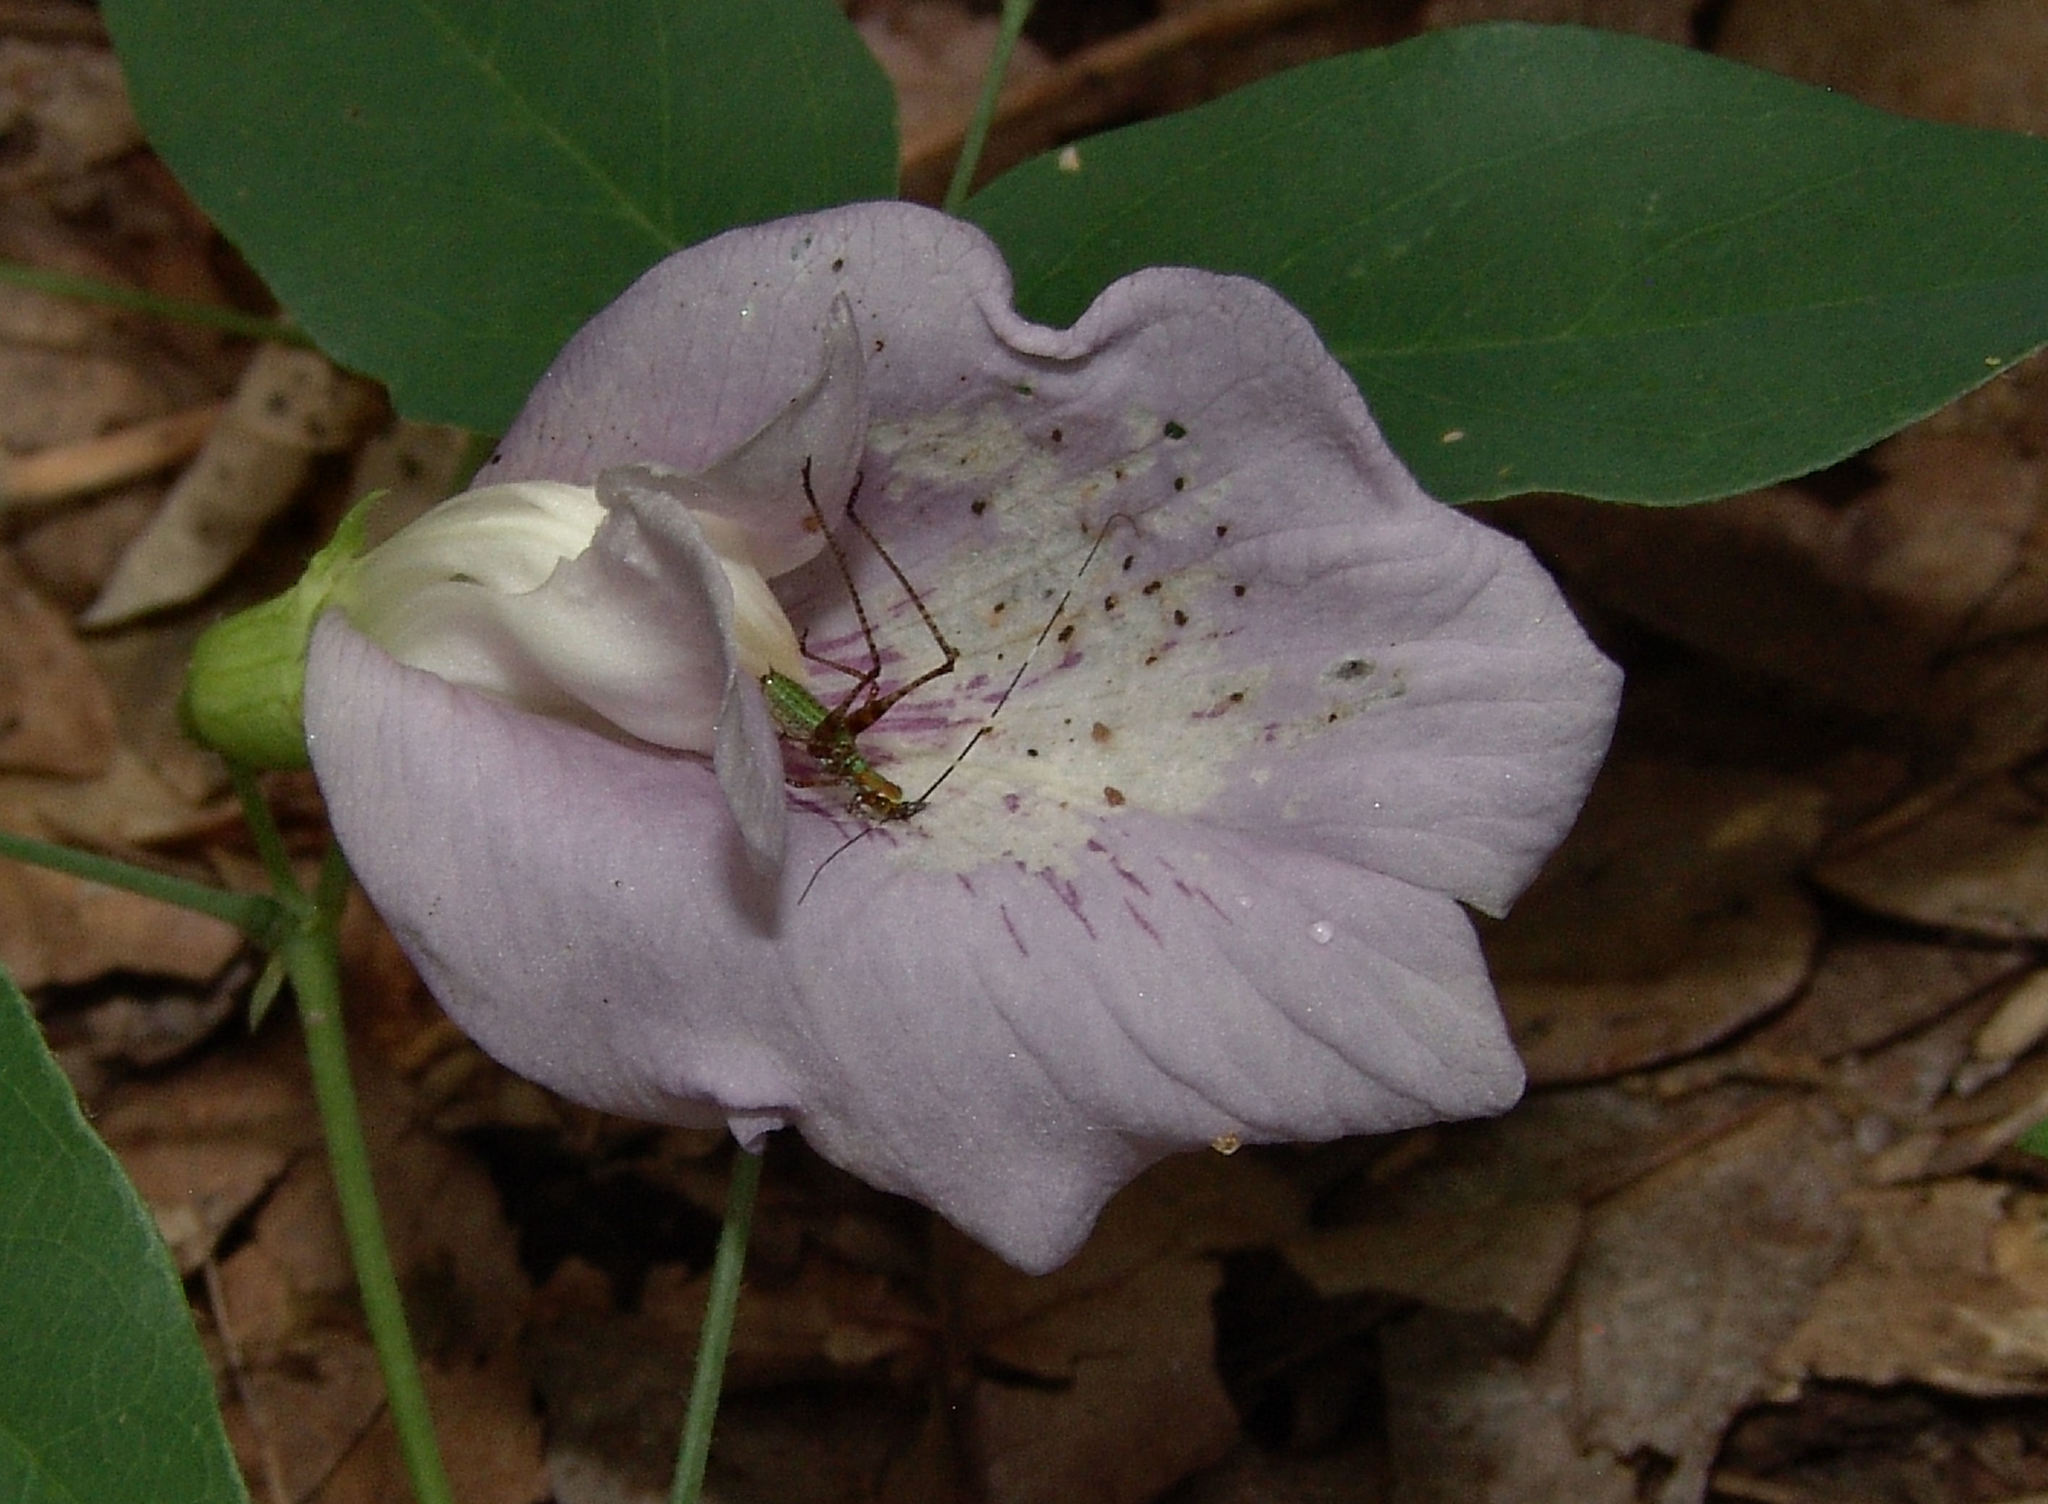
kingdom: Plantae
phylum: Tracheophyta
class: Magnoliopsida
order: Fabales
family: Fabaceae
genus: Clitoria
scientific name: Clitoria mariana
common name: Butterfly-pea
